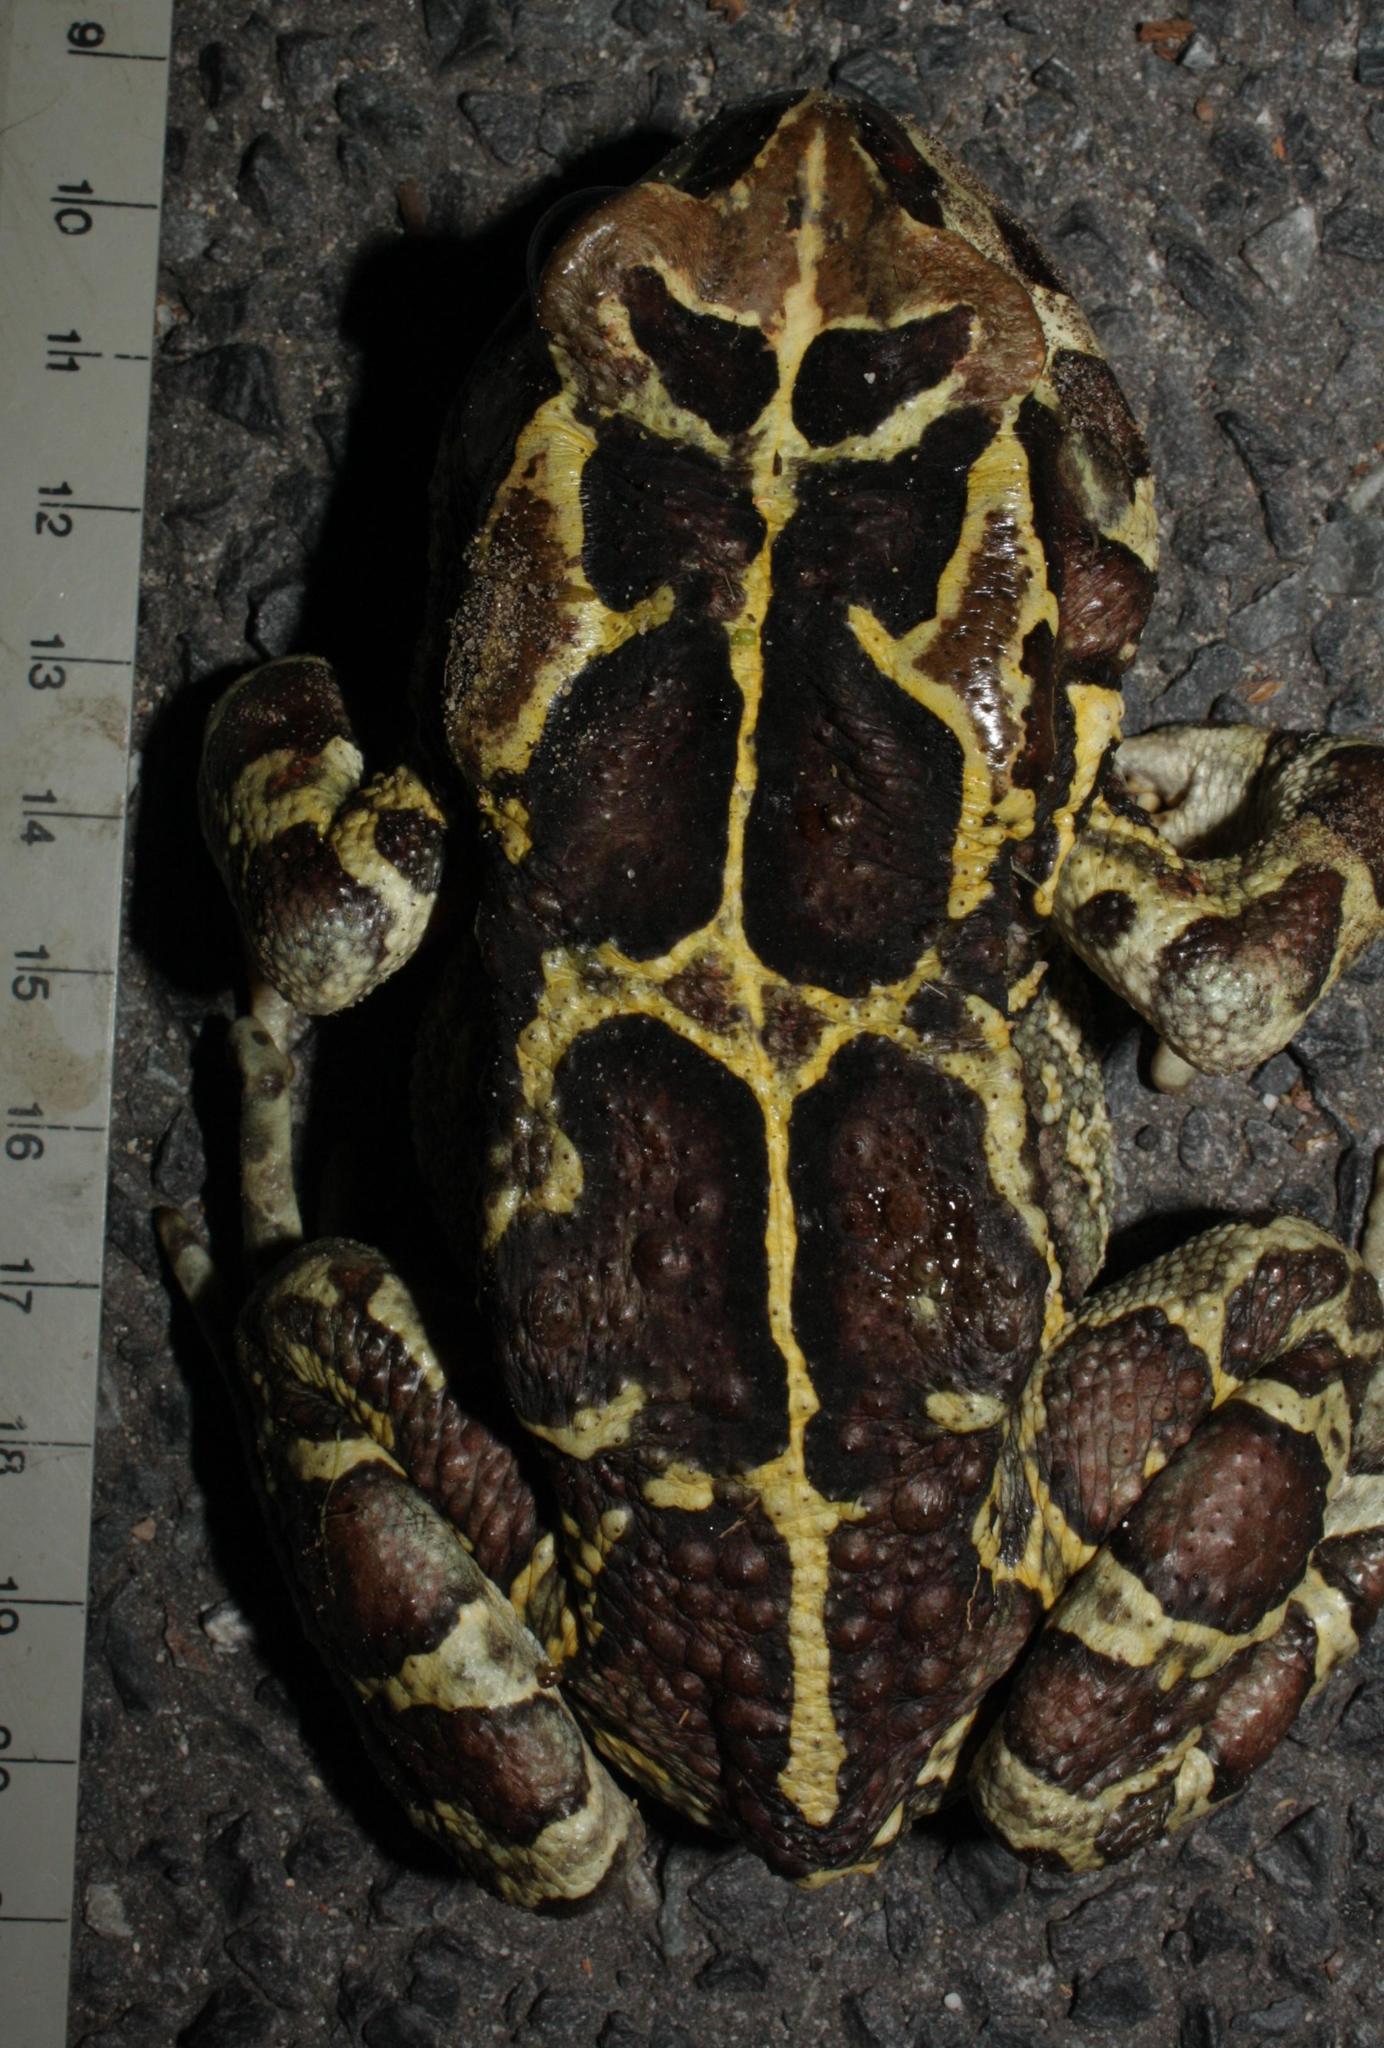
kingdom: Animalia
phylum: Chordata
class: Amphibia
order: Anura
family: Bufonidae
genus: Sclerophrys
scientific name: Sclerophrys pantherina
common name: Panther toad
